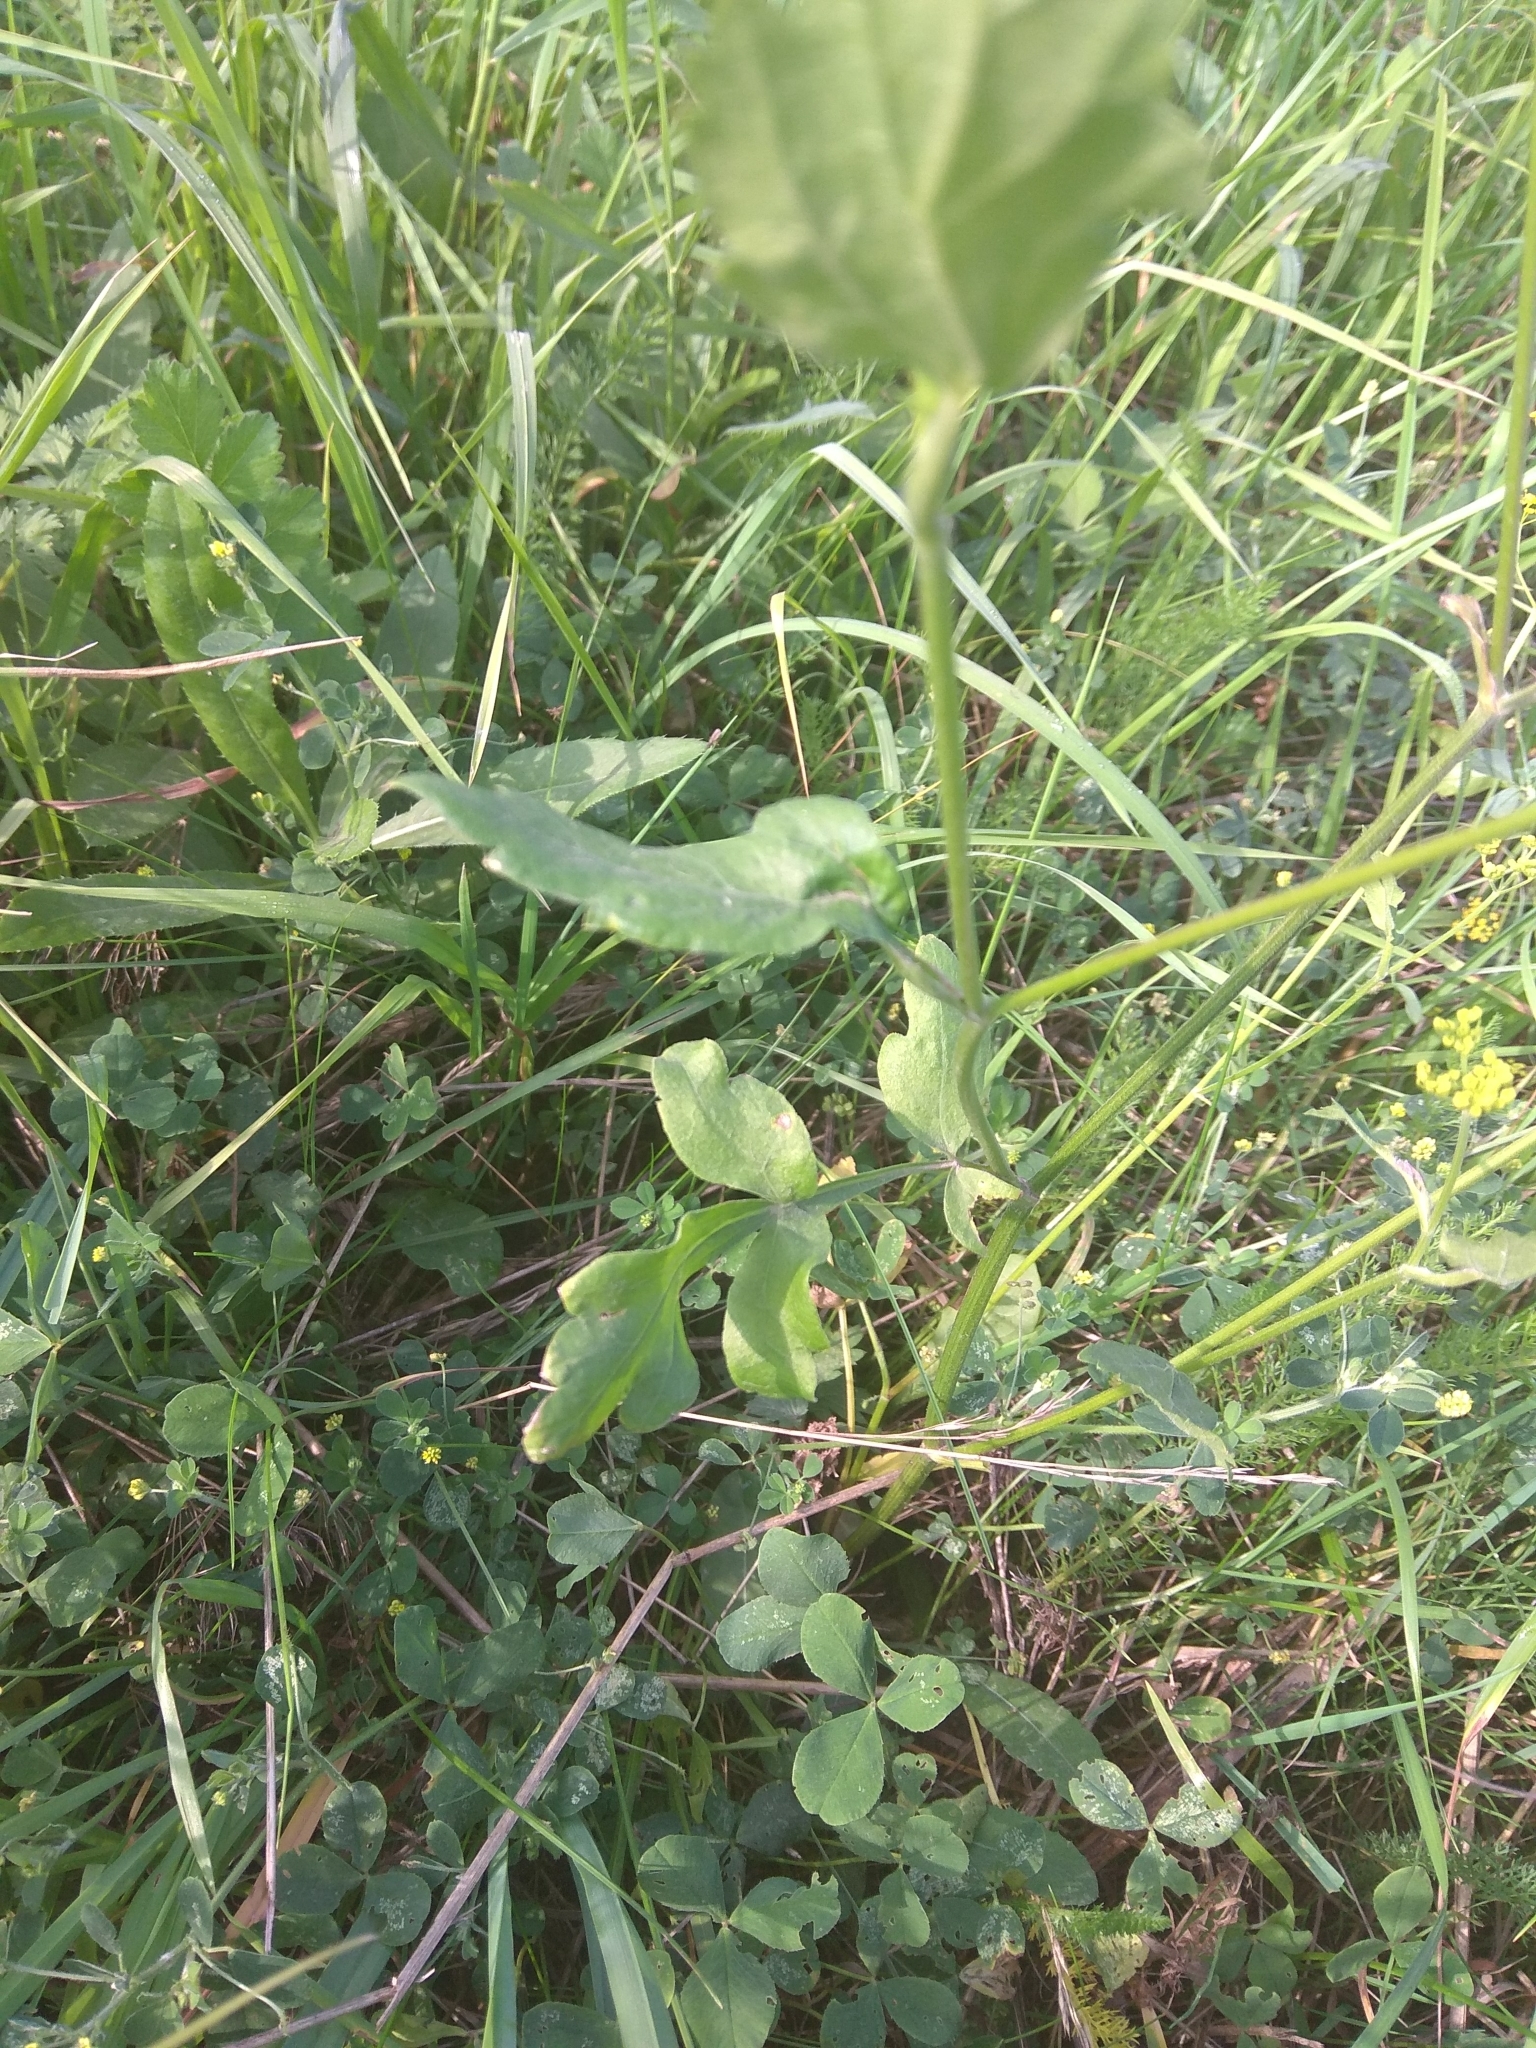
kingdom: Plantae
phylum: Tracheophyta
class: Magnoliopsida
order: Apiales
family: Apiaceae
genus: Pastinaca
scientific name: Pastinaca sativa
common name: Wild parsnip
